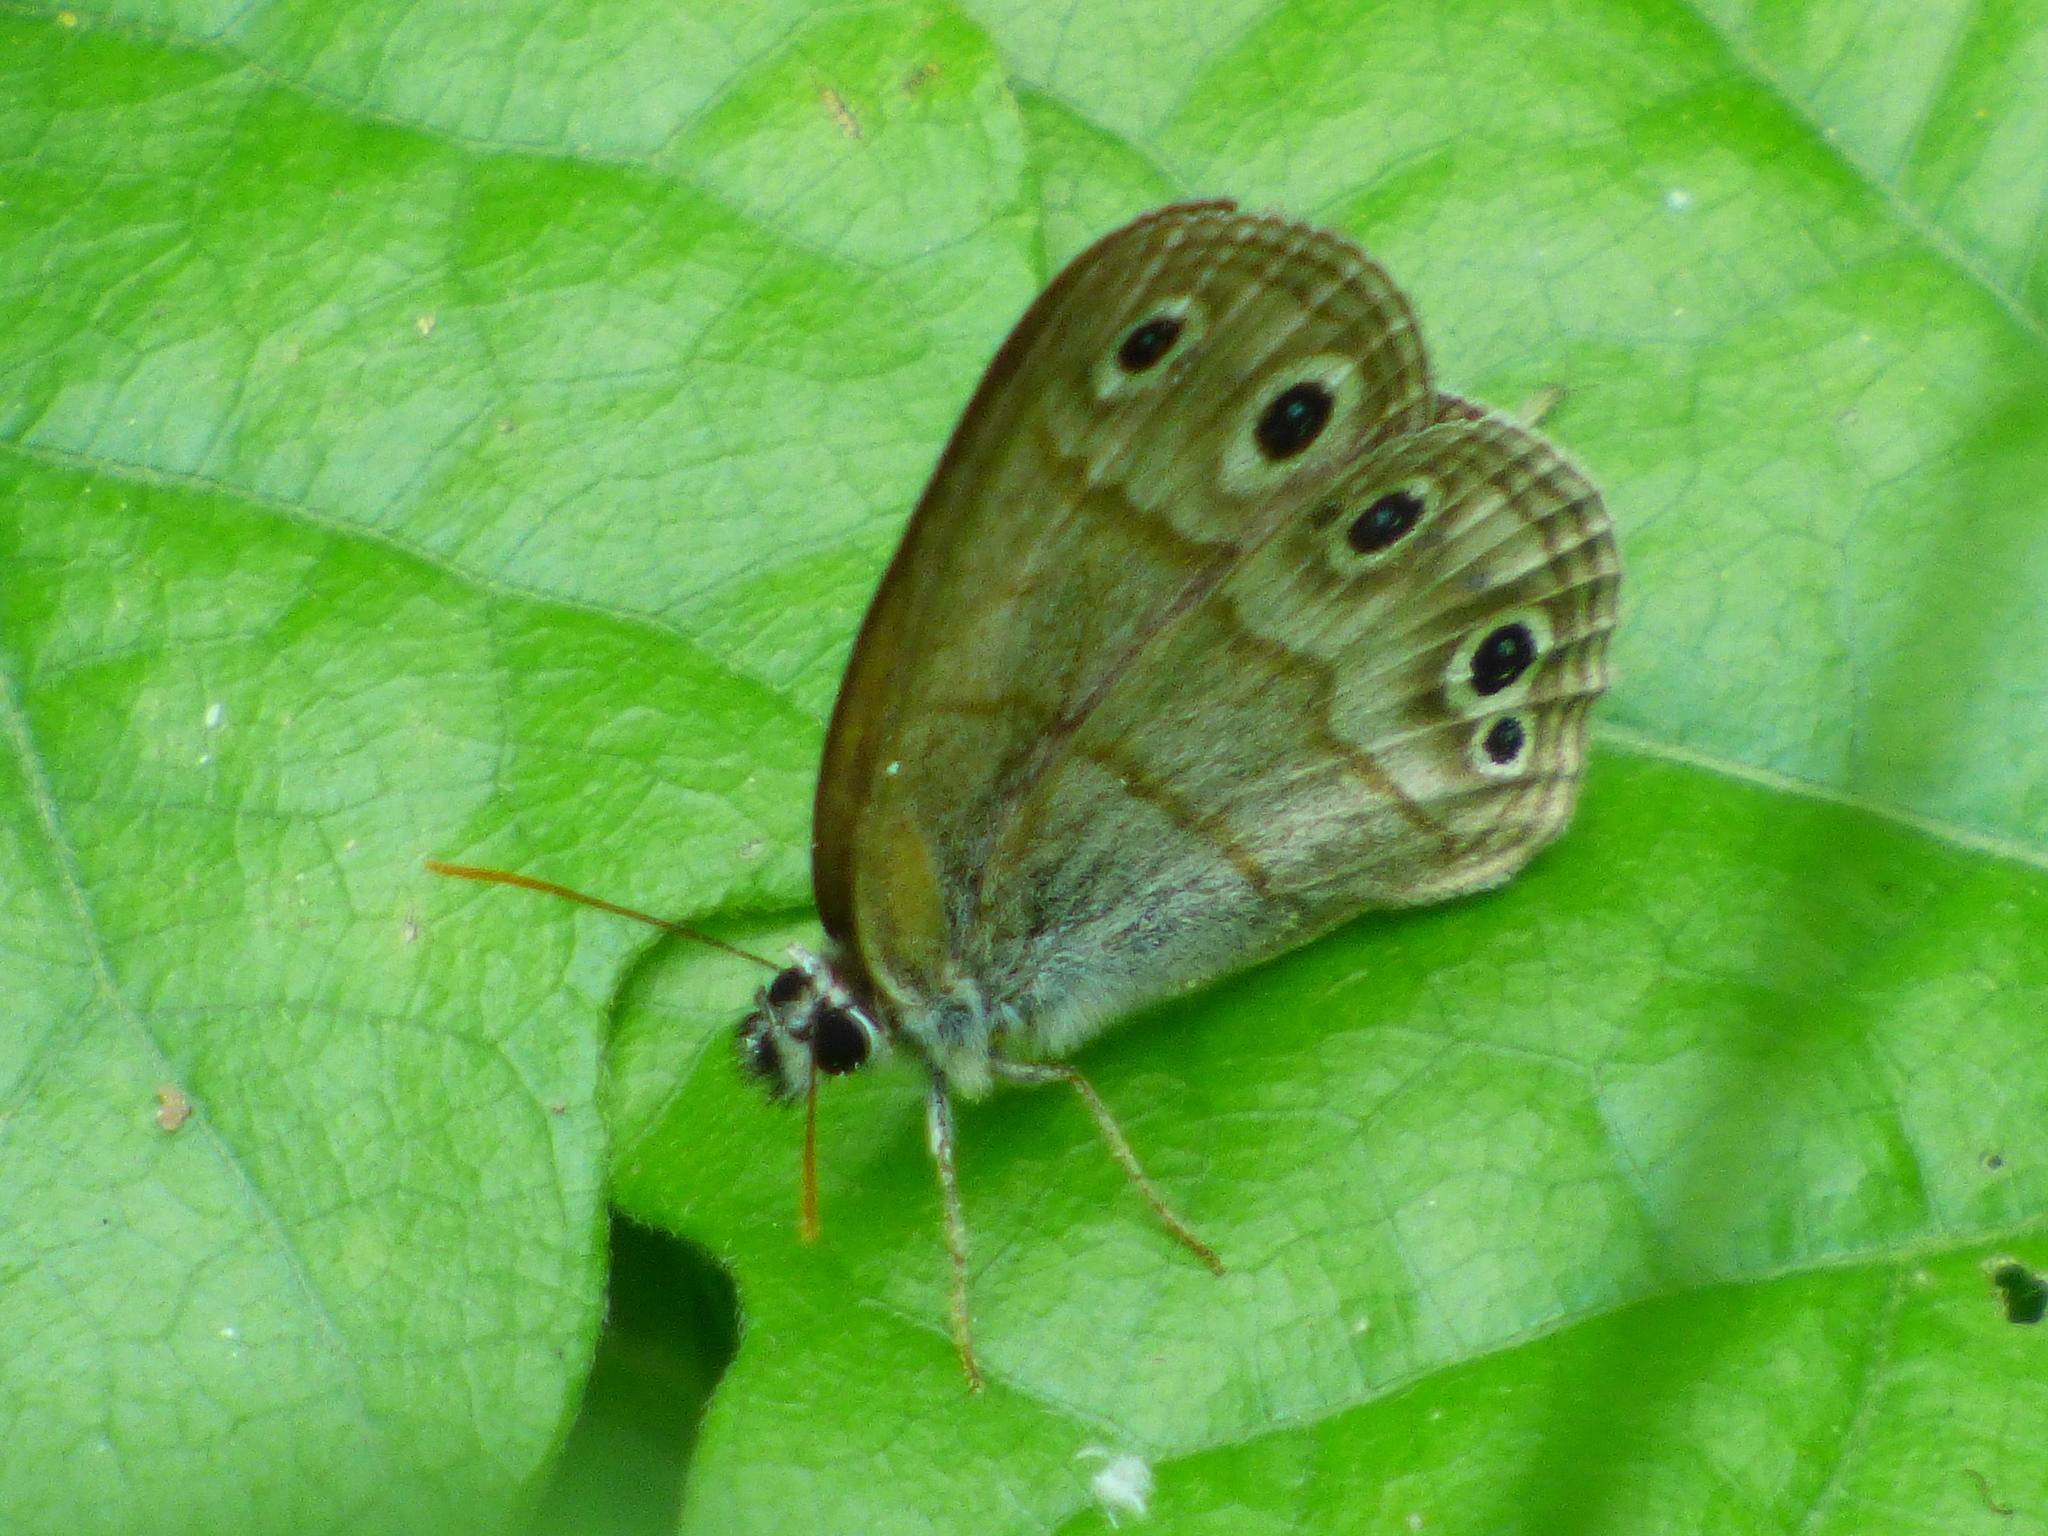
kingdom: Animalia
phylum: Arthropoda
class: Insecta
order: Lepidoptera
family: Nymphalidae
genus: Euptychia
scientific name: Euptychia cymela
